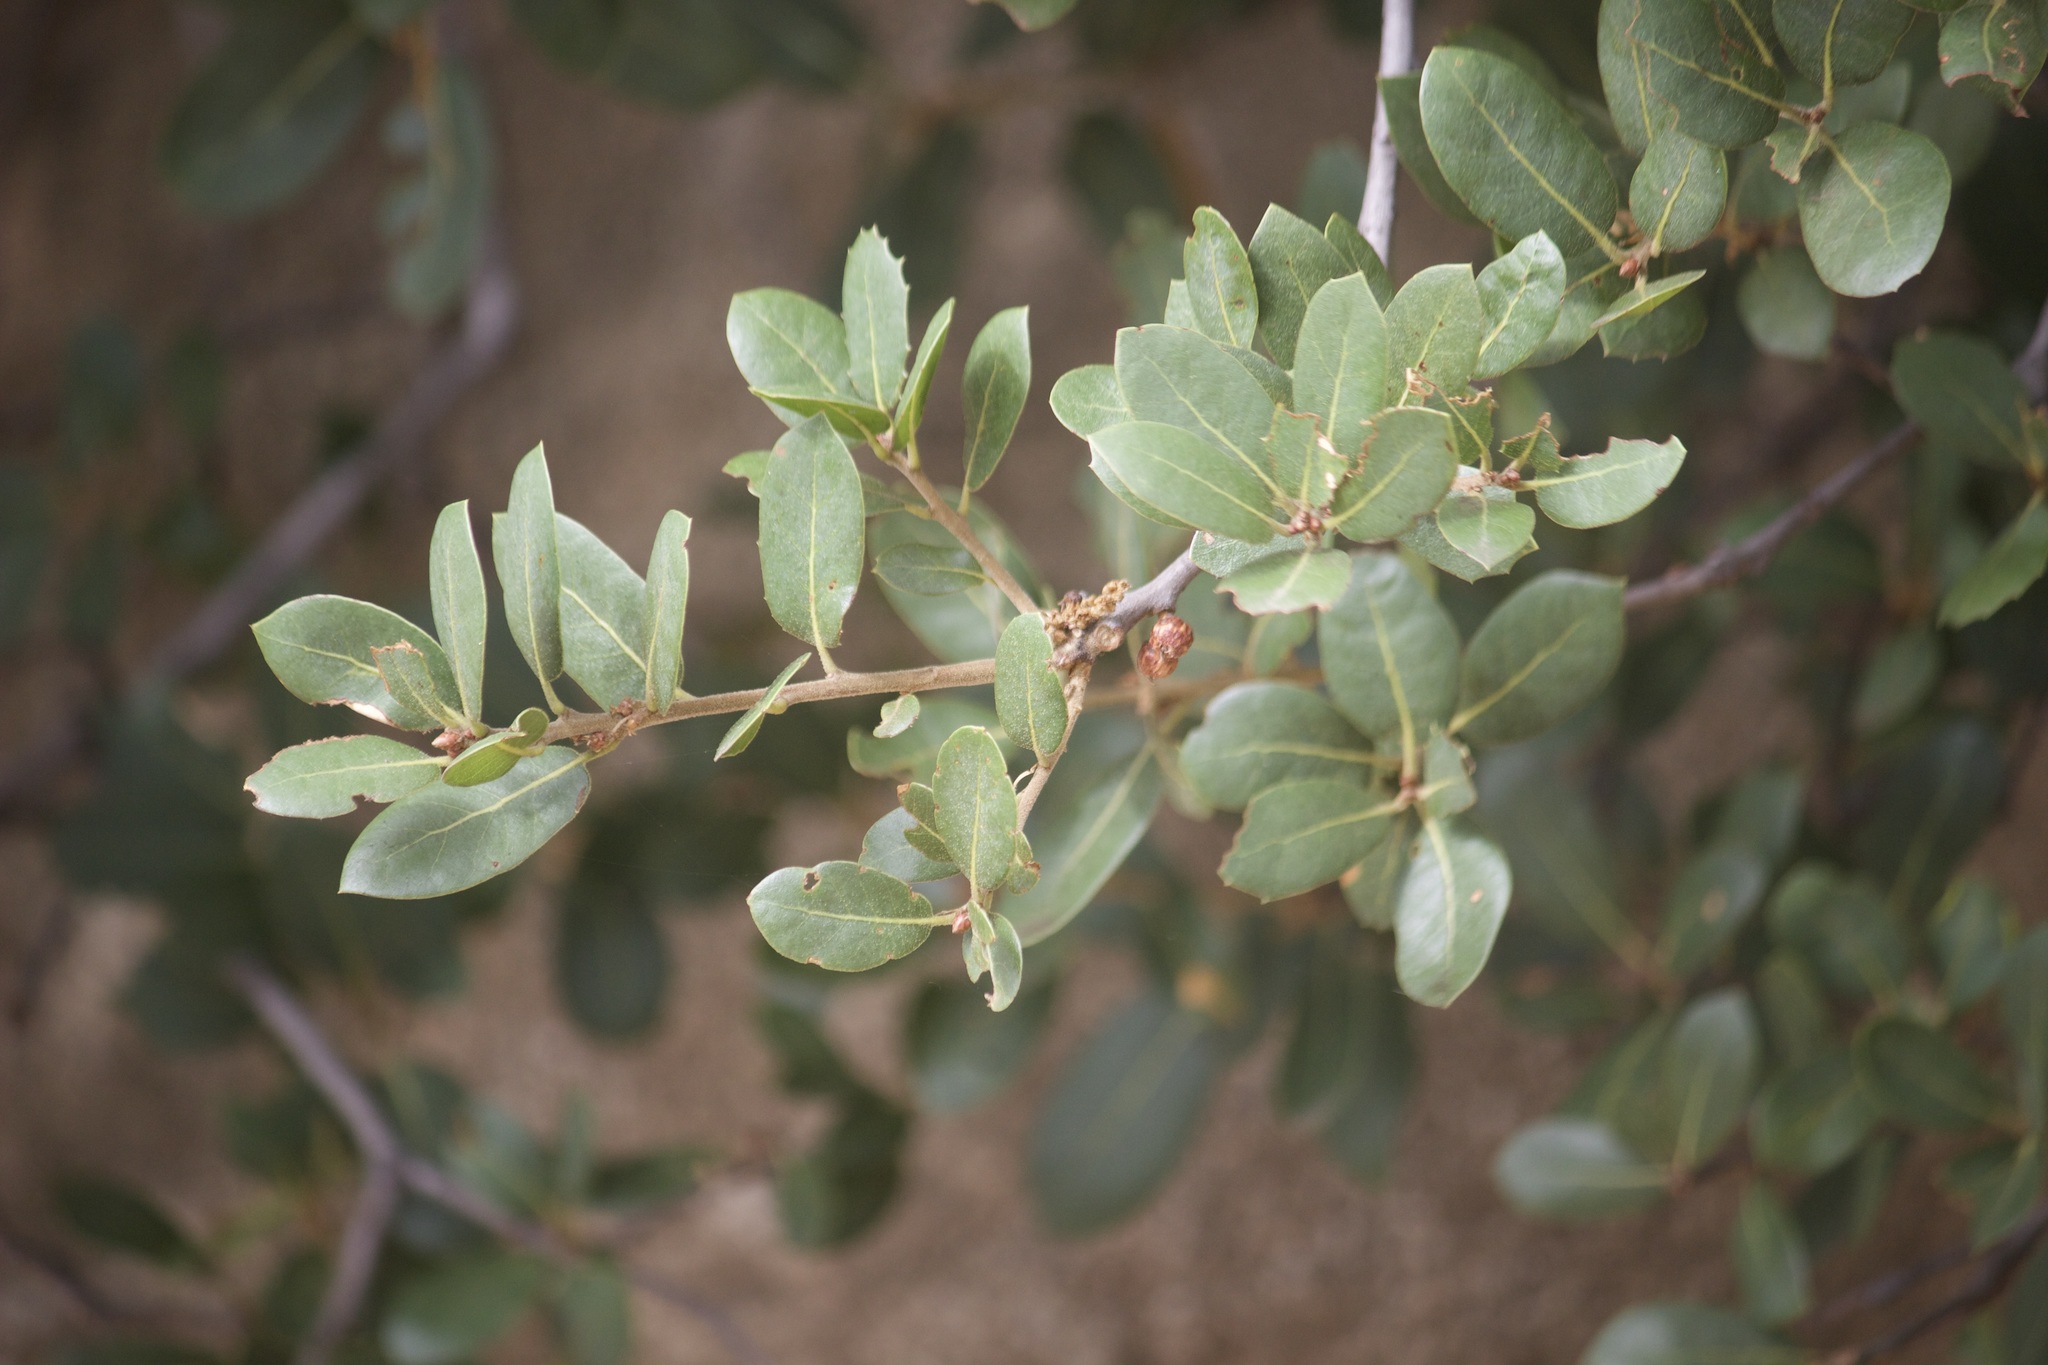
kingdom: Plantae
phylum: Tracheophyta
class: Magnoliopsida
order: Fagales
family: Fagaceae
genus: Quercus
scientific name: Quercus wislizeni
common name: Interior live oak
